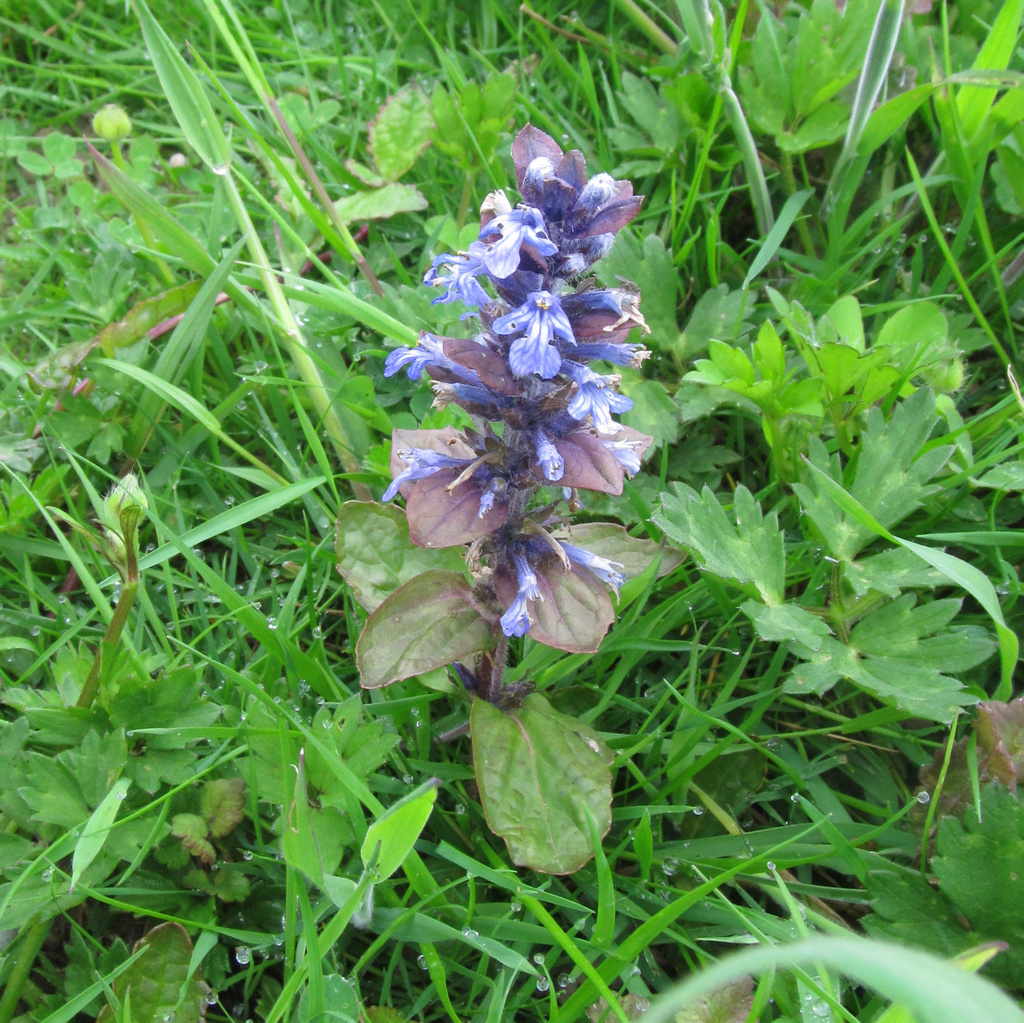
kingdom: Plantae
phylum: Tracheophyta
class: Magnoliopsida
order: Lamiales
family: Lamiaceae
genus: Ajuga
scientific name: Ajuga reptans
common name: Bugle
